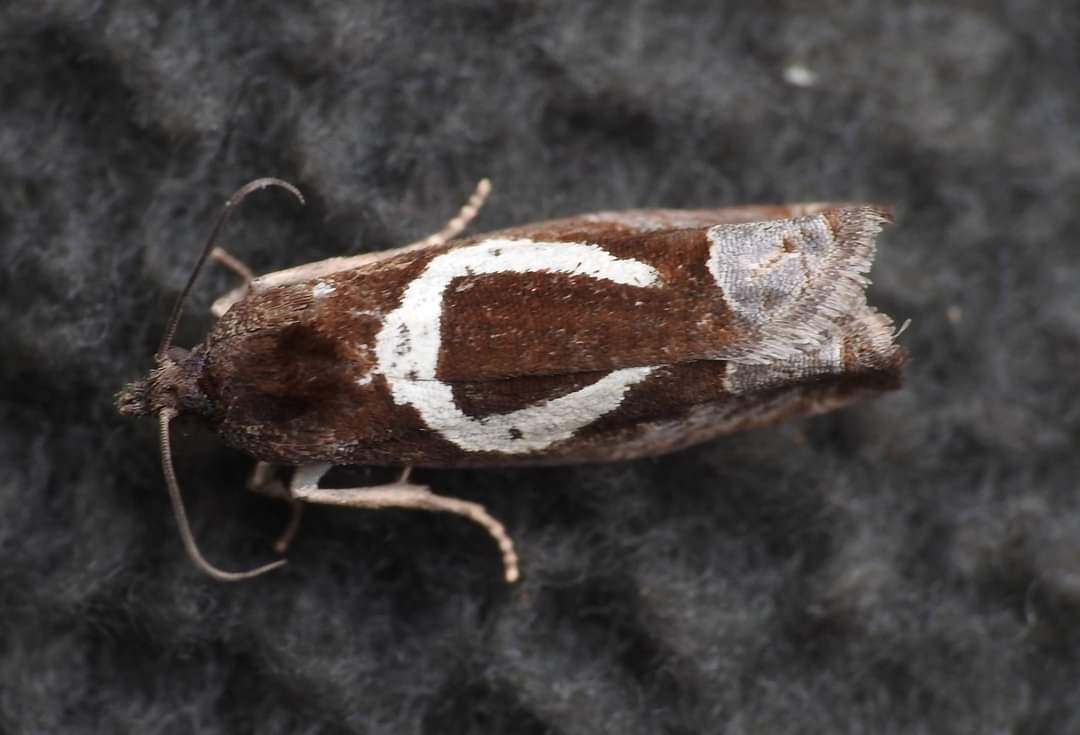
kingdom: Animalia
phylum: Arthropoda
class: Insecta
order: Lepidoptera
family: Tortricidae
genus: Epiblema
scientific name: Epiblema foenella
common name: White-foot bell
